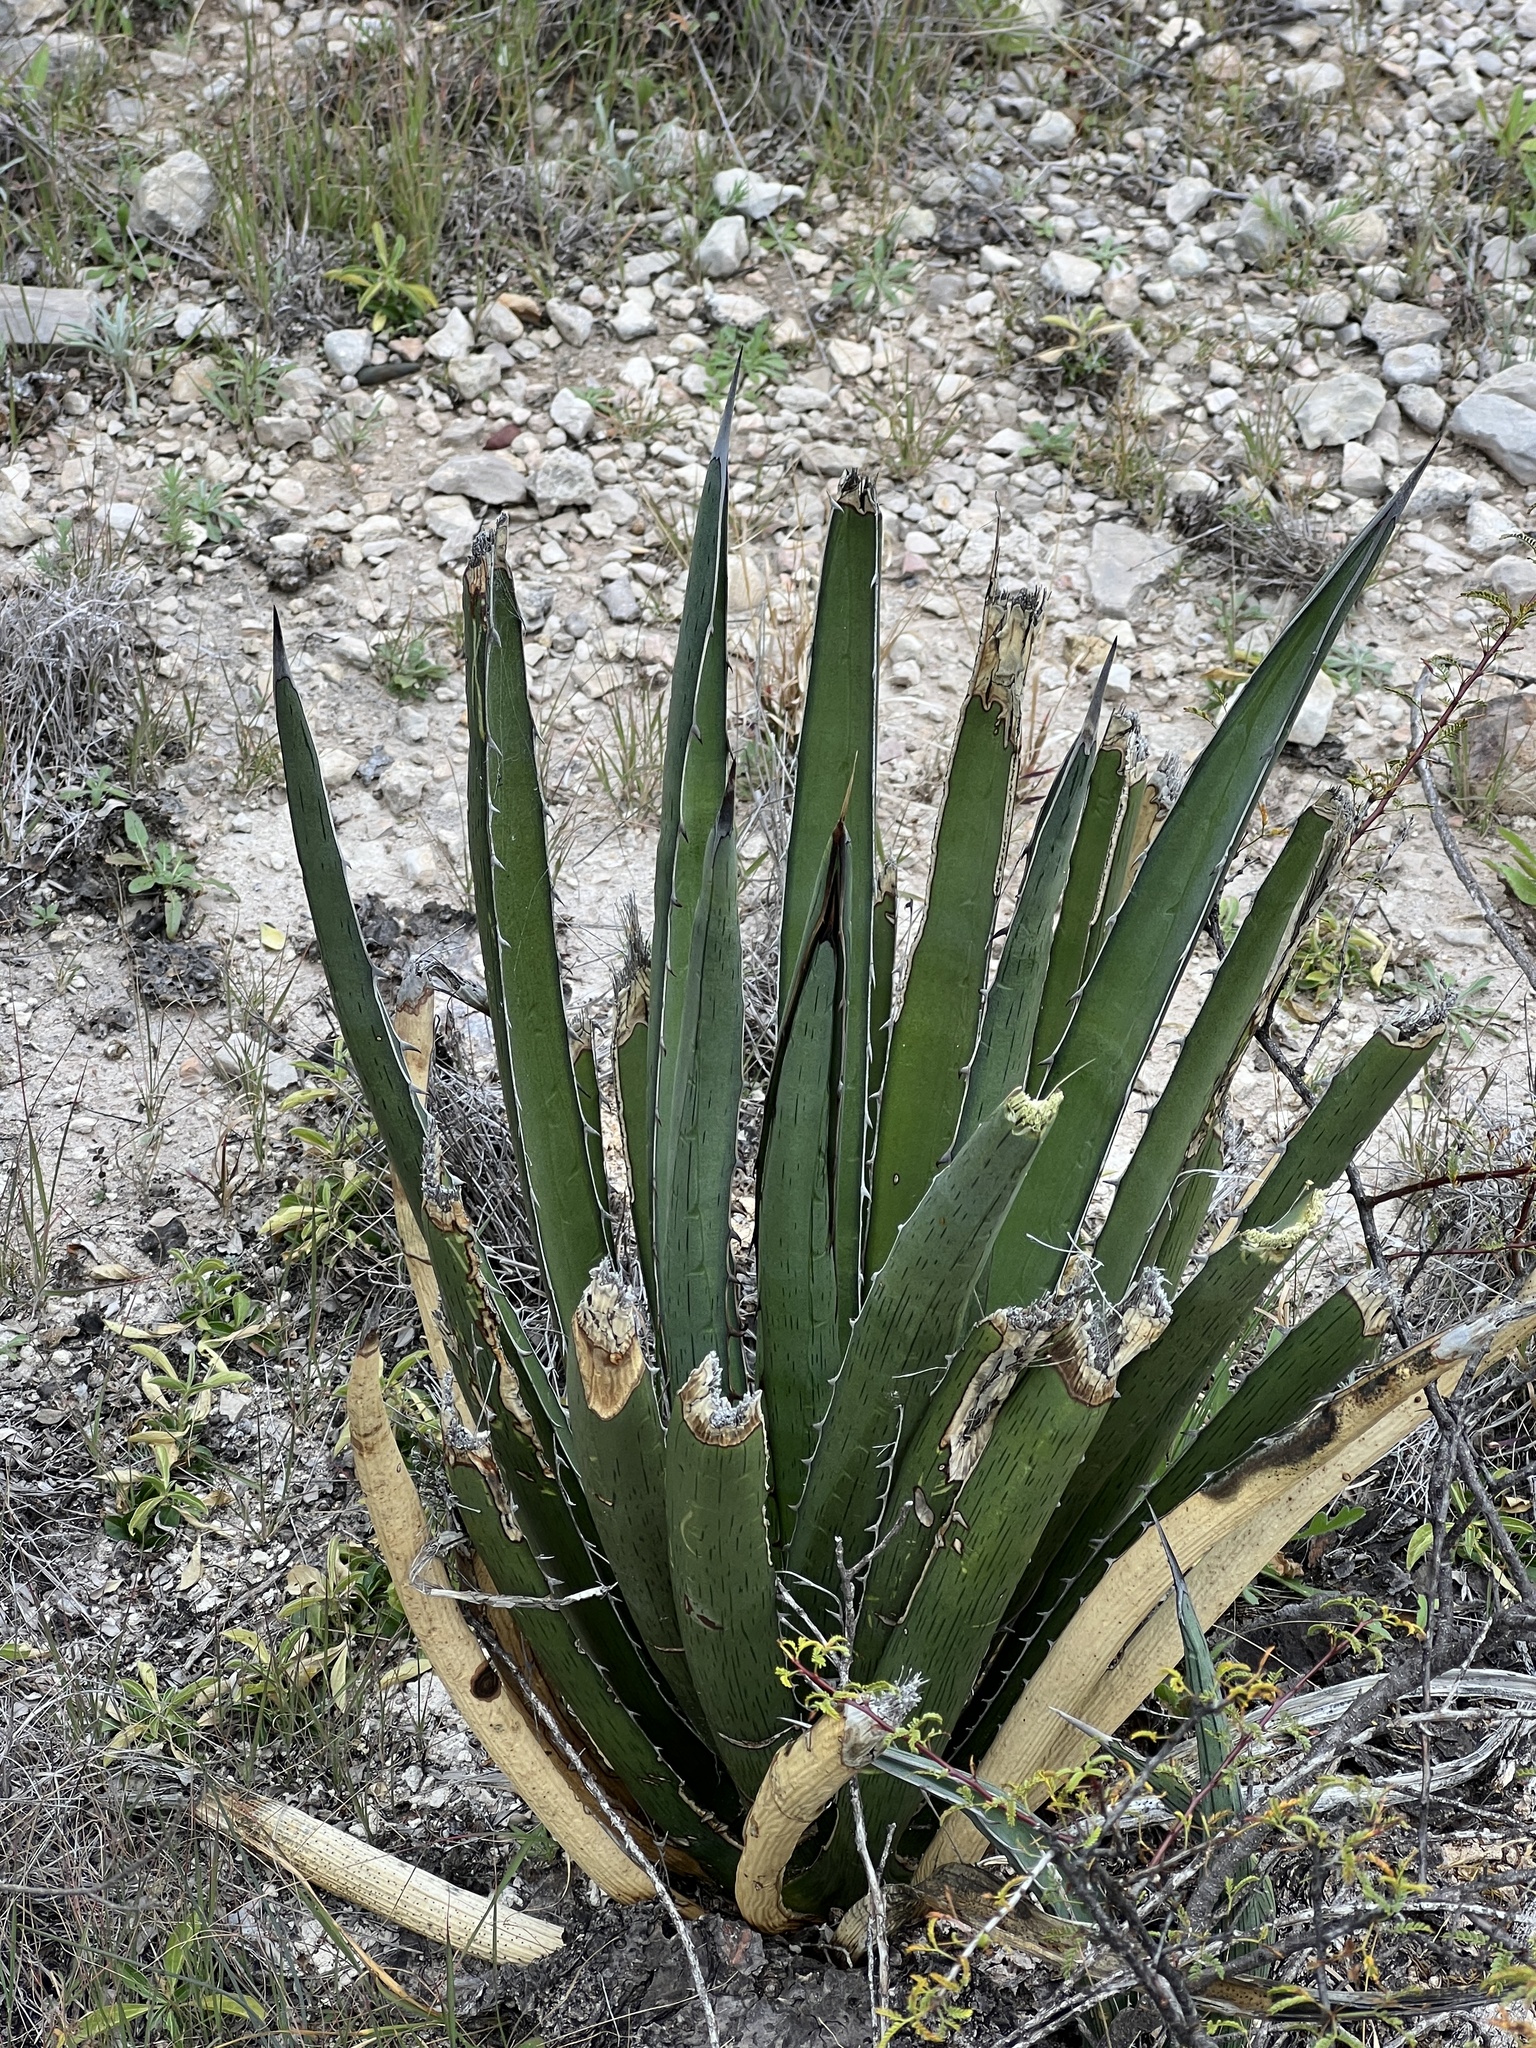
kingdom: Plantae
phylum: Tracheophyta
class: Liliopsida
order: Asparagales
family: Asparagaceae
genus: Agave
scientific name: Agave lechuguilla
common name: Lecheguilla agave
